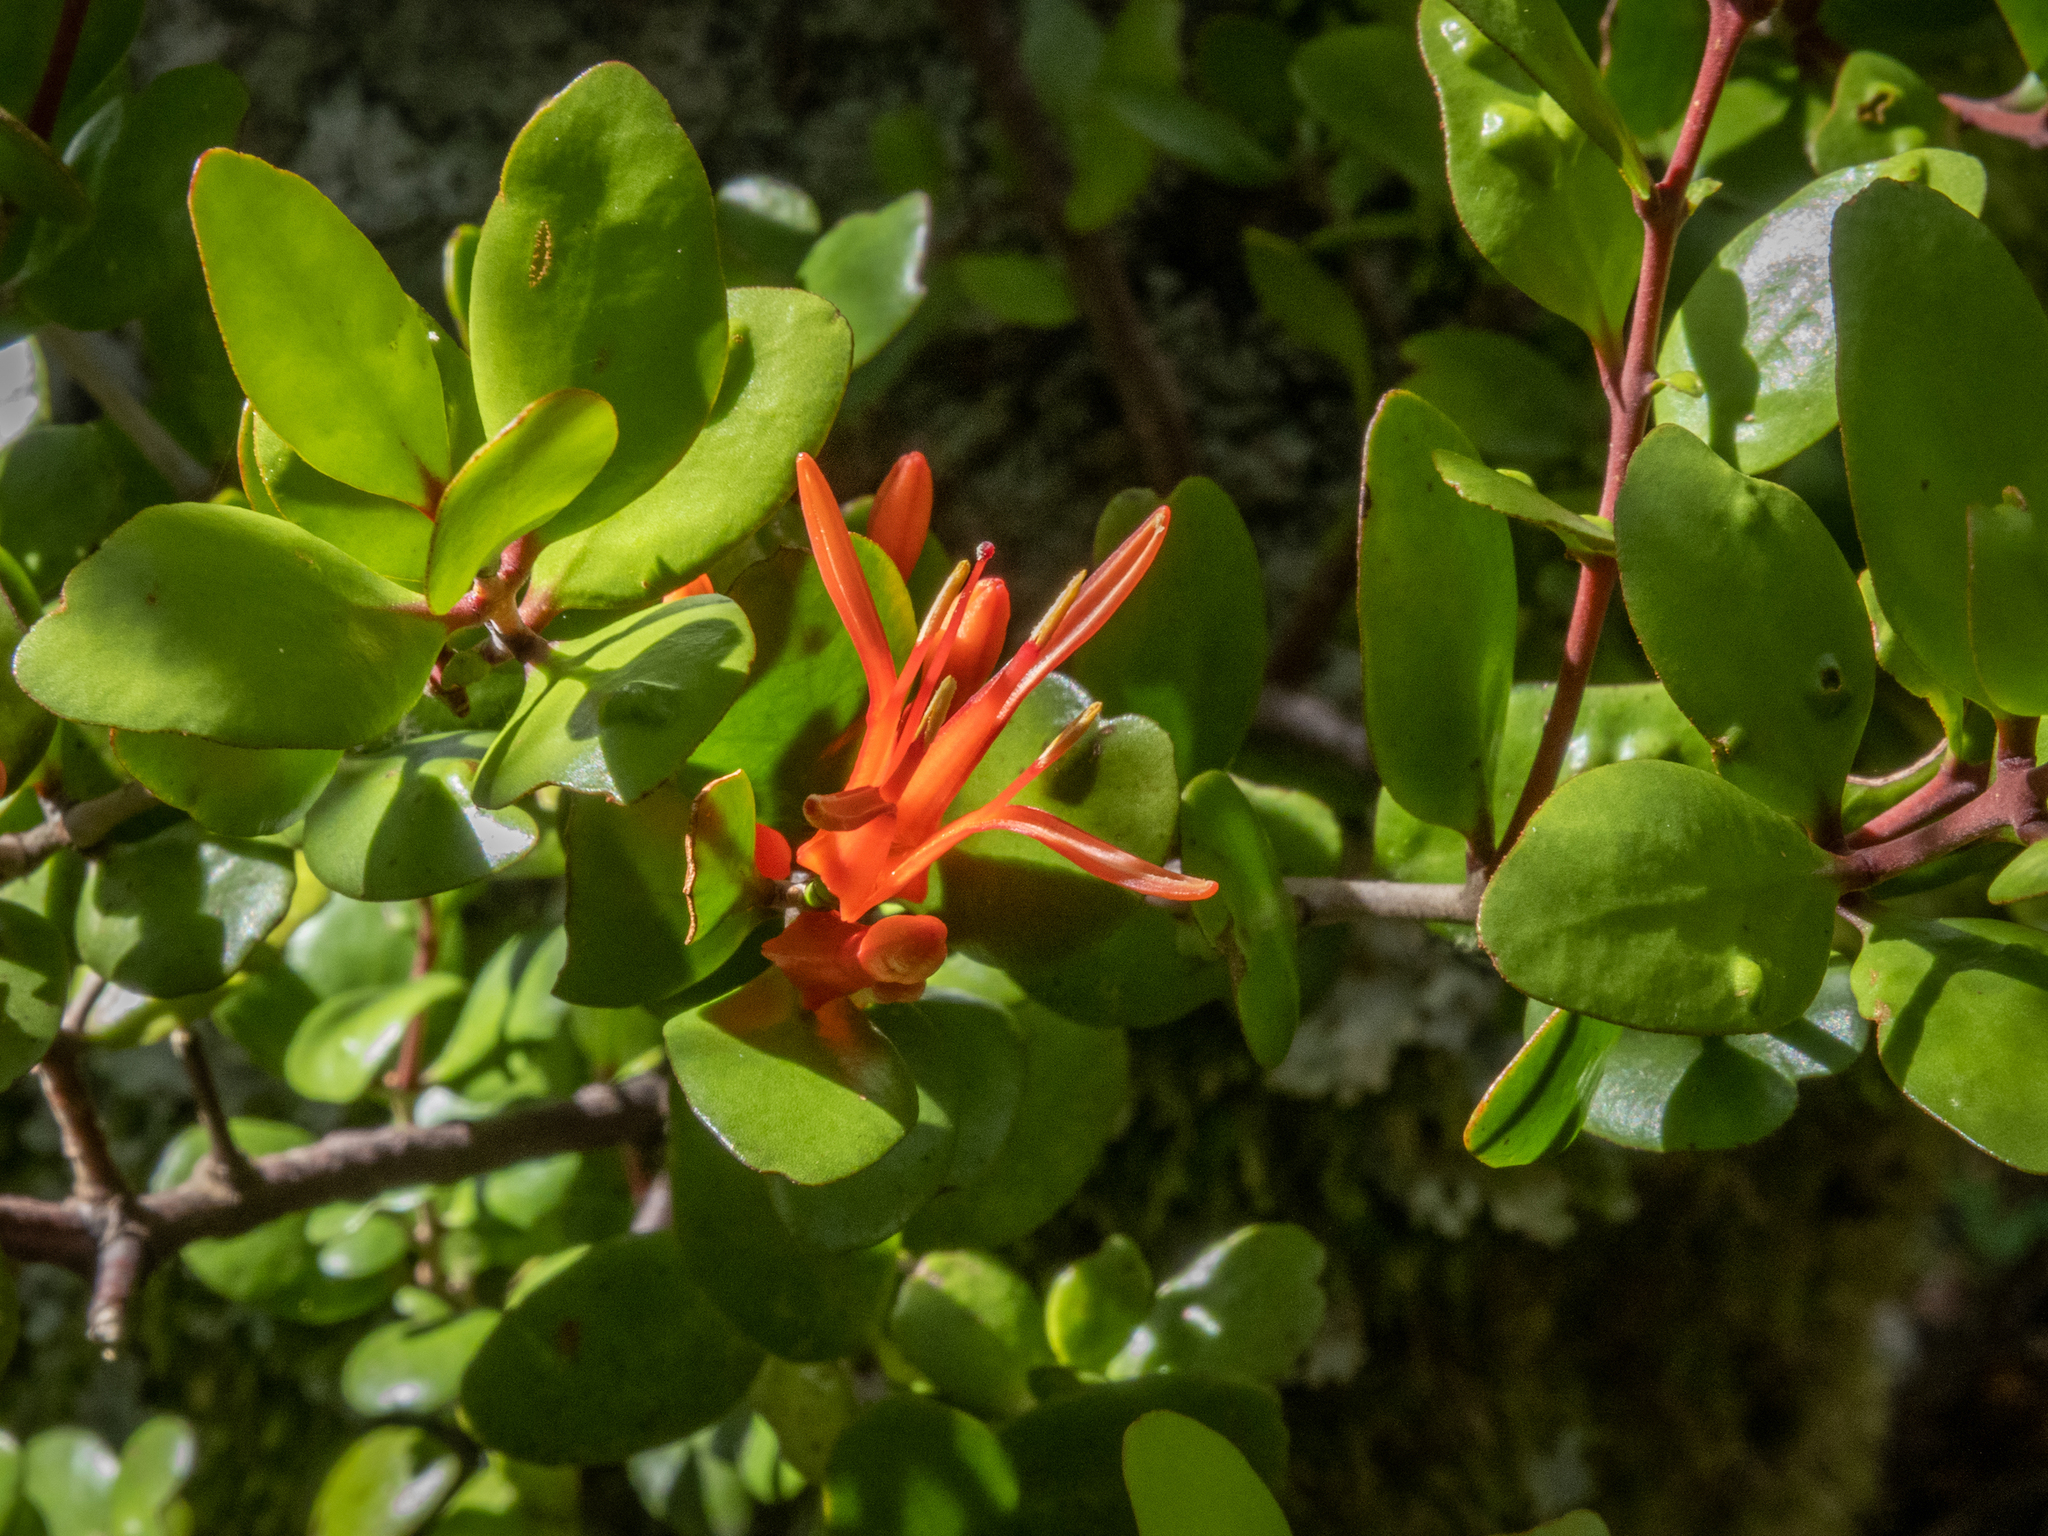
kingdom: Plantae
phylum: Tracheophyta
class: Magnoliopsida
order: Santalales
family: Loranthaceae
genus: Peraxilla
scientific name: Peraxilla tetrapetala
